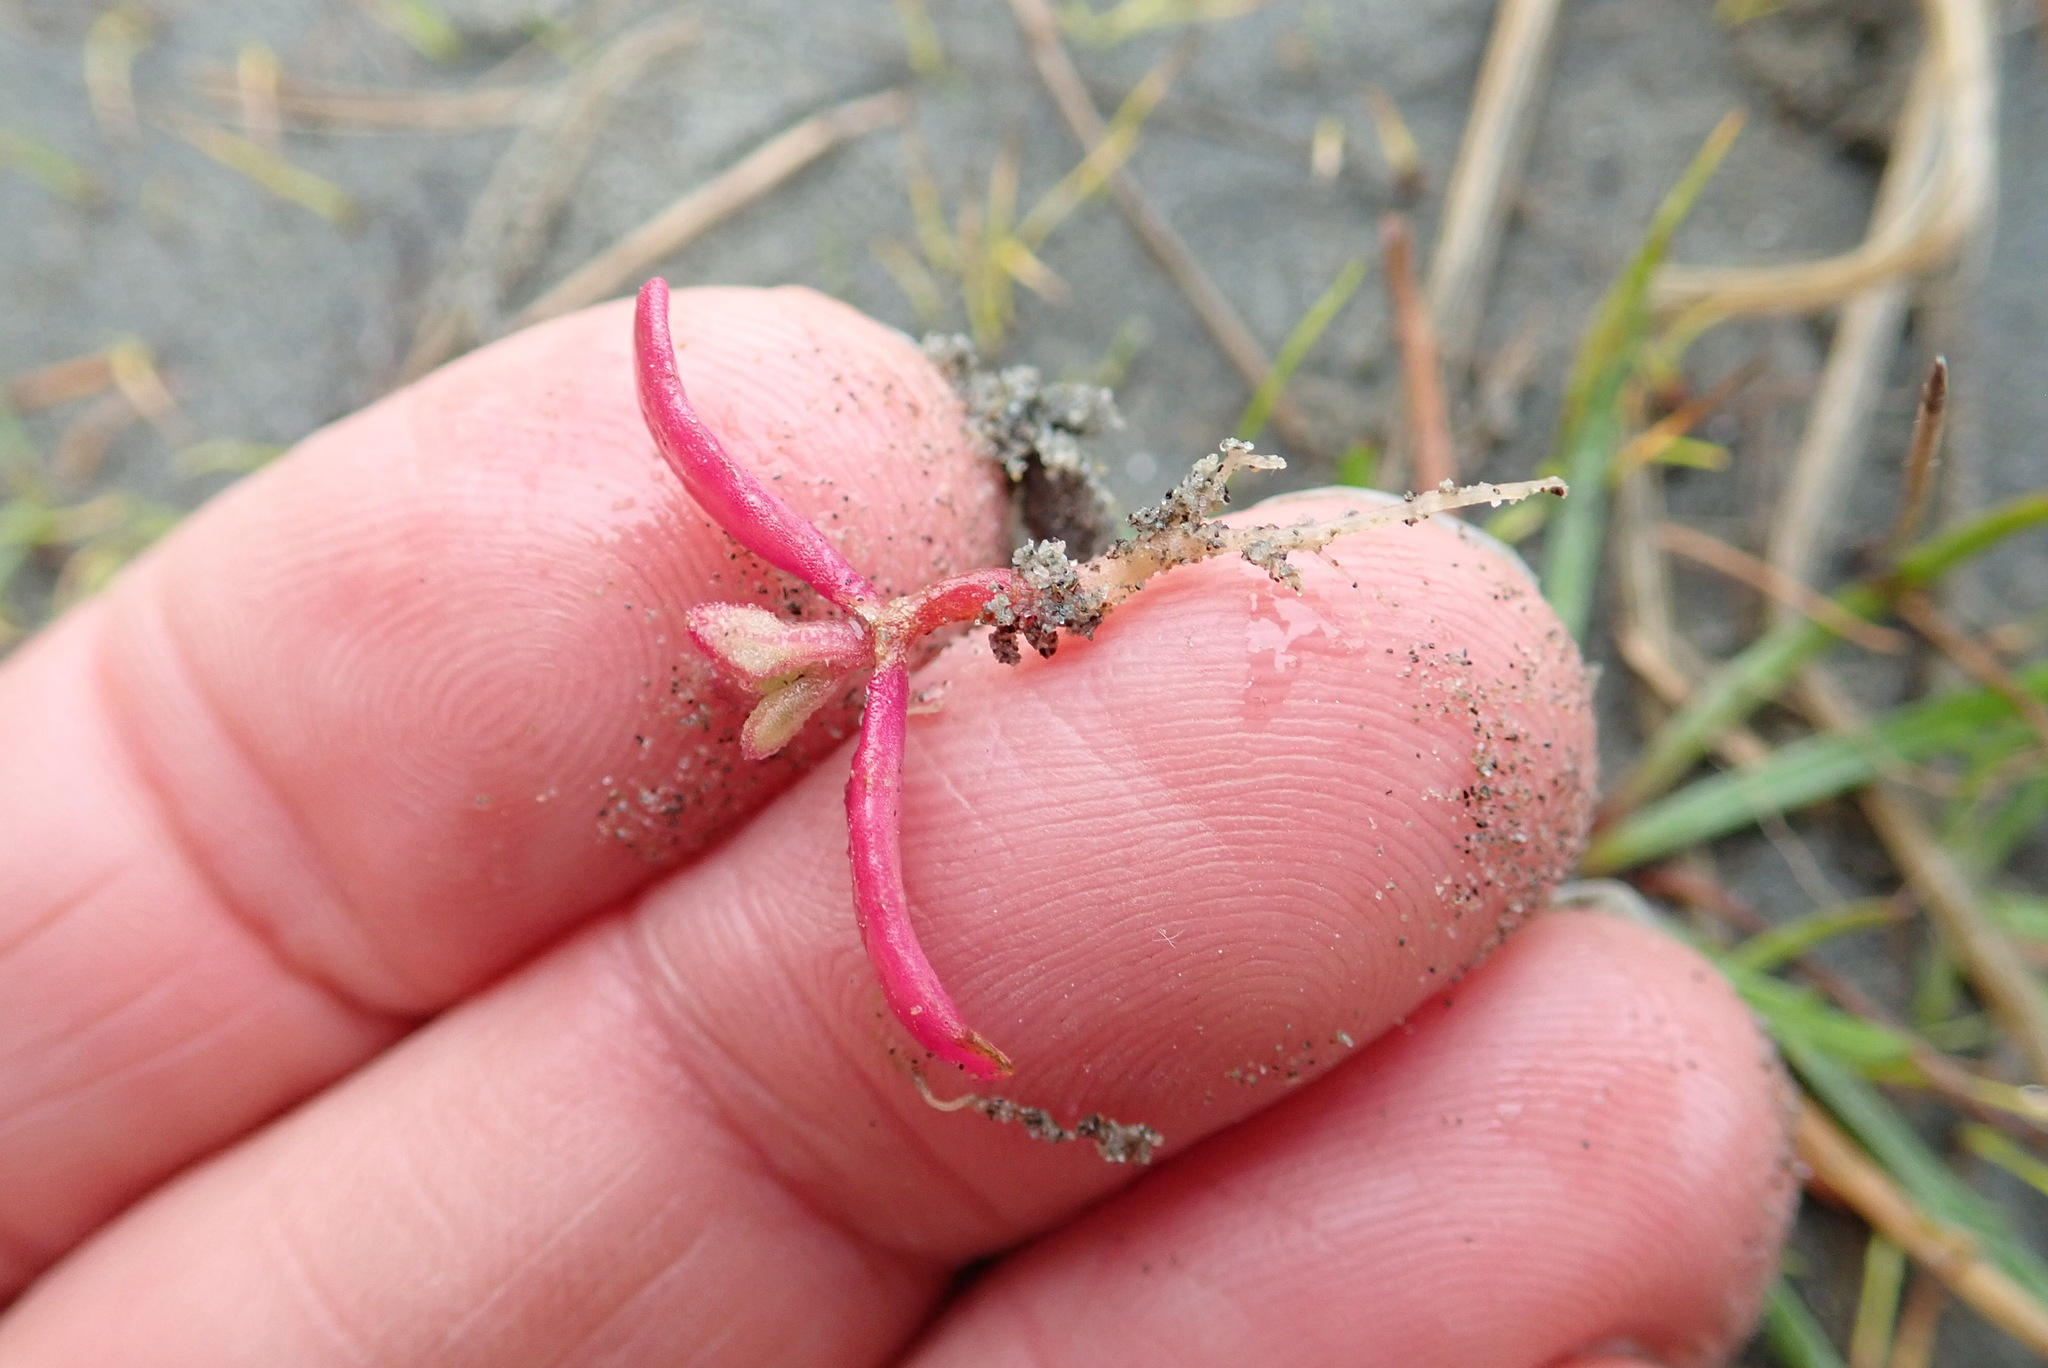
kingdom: Plantae
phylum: Tracheophyta
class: Magnoliopsida
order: Asterales
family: Asteraceae
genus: Senecio
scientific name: Senecio elegans
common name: Purple groundsel
